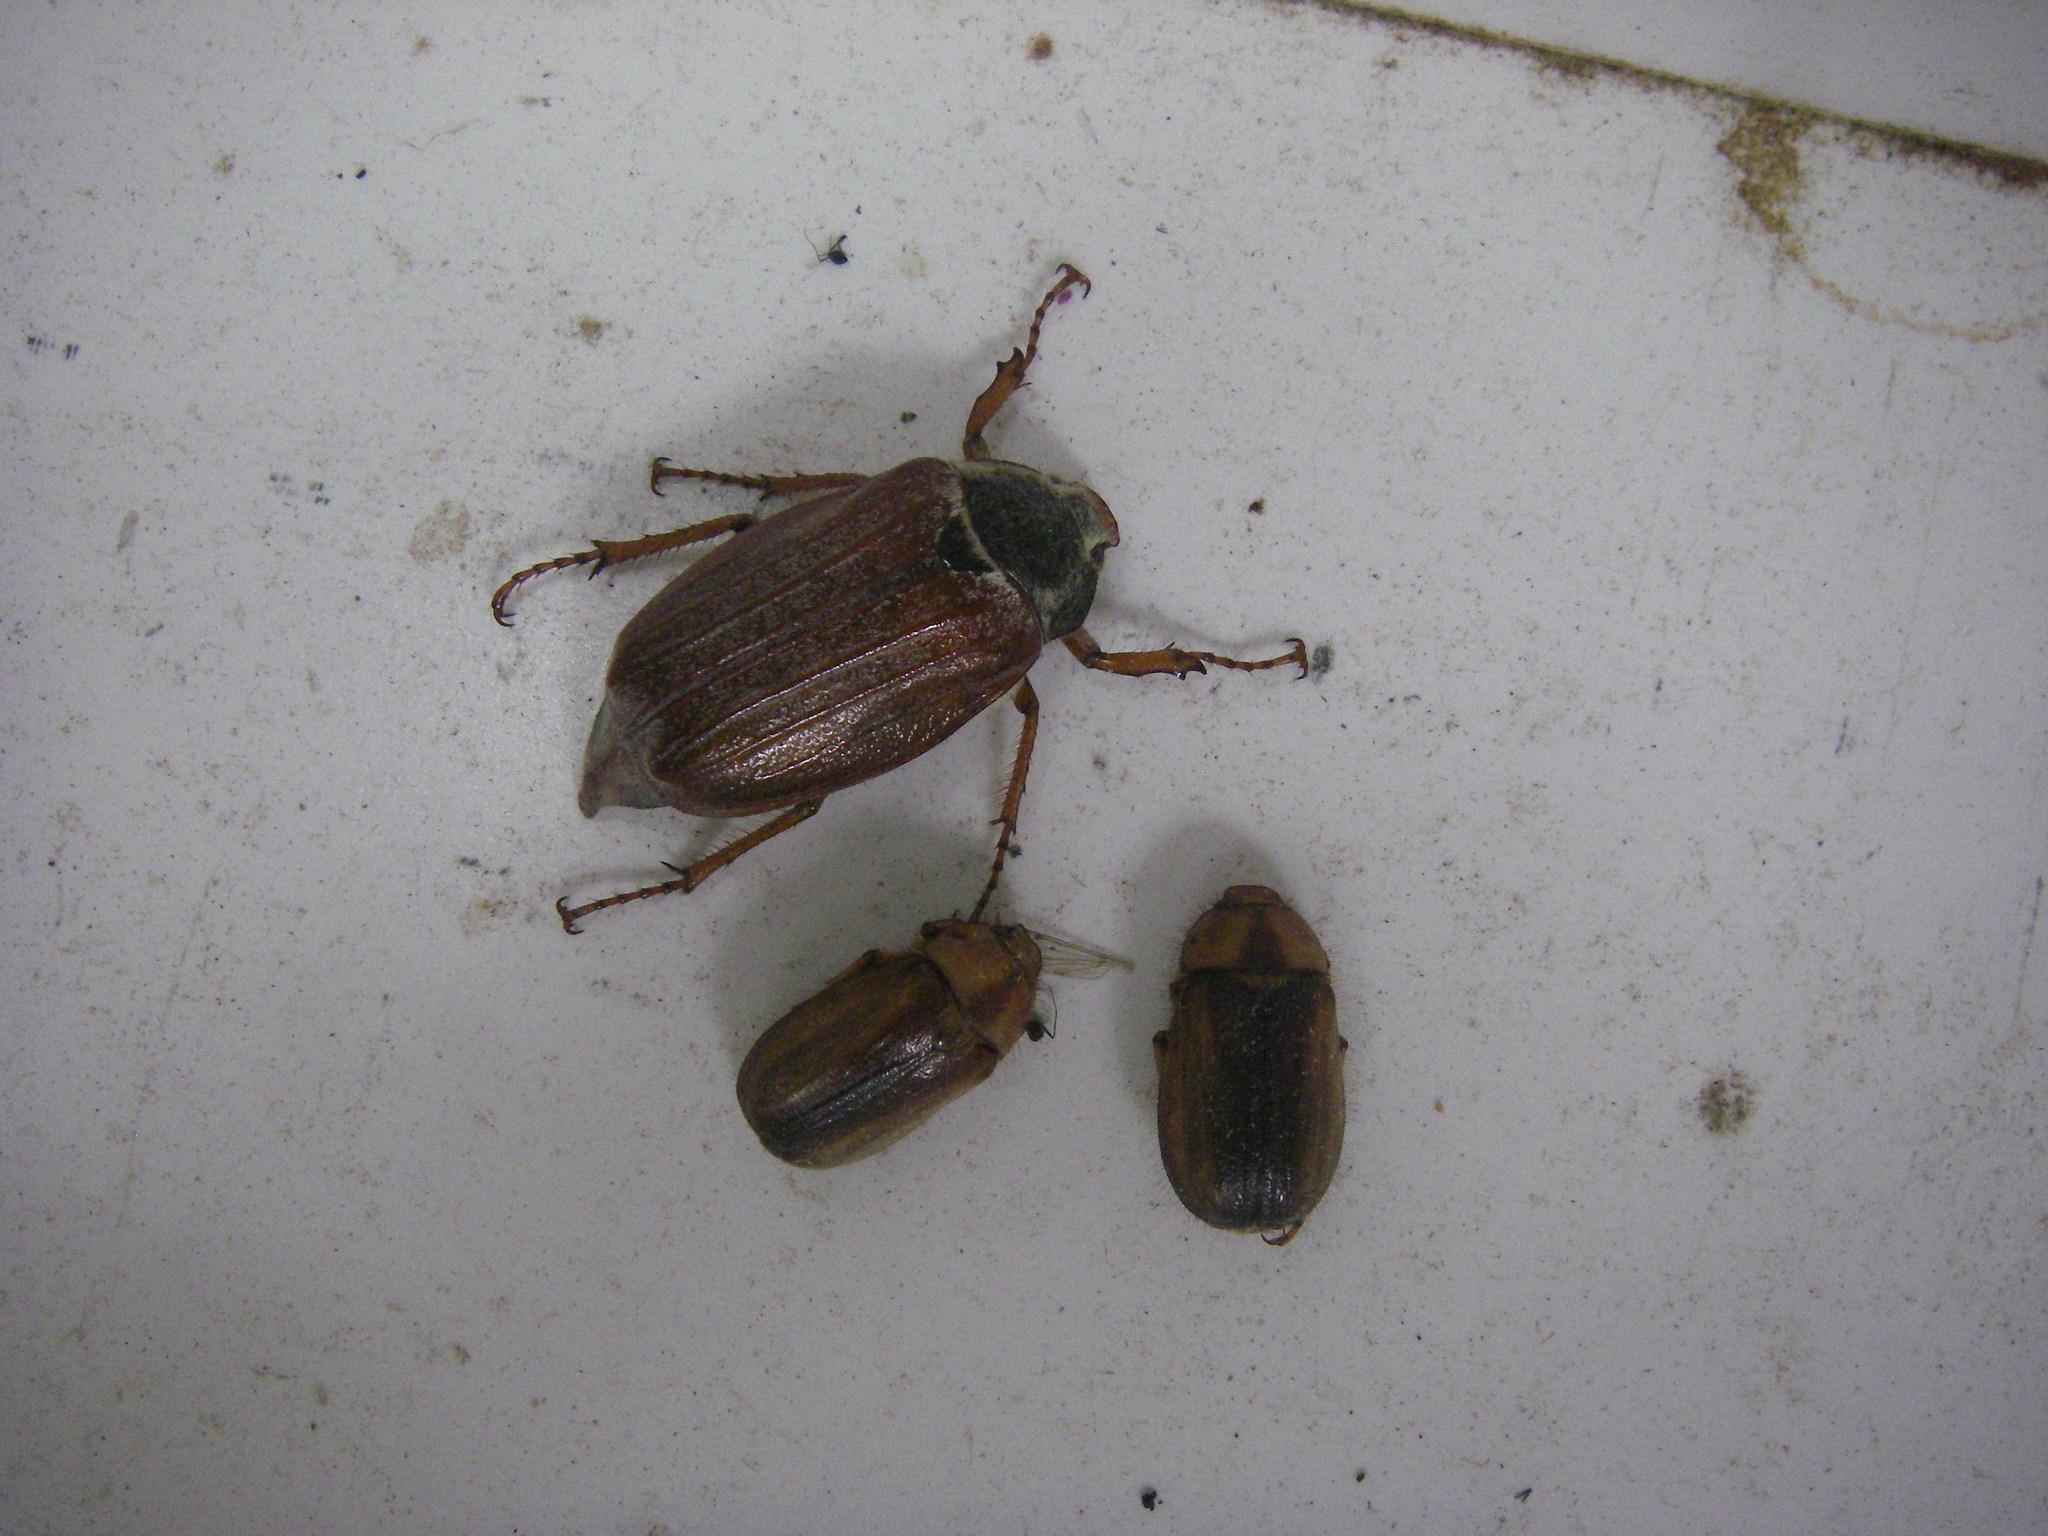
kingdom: Animalia
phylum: Arthropoda
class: Insecta
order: Coleoptera
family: Scarabaeidae
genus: Rhizotrogus
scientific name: Rhizotrogus aestivus
